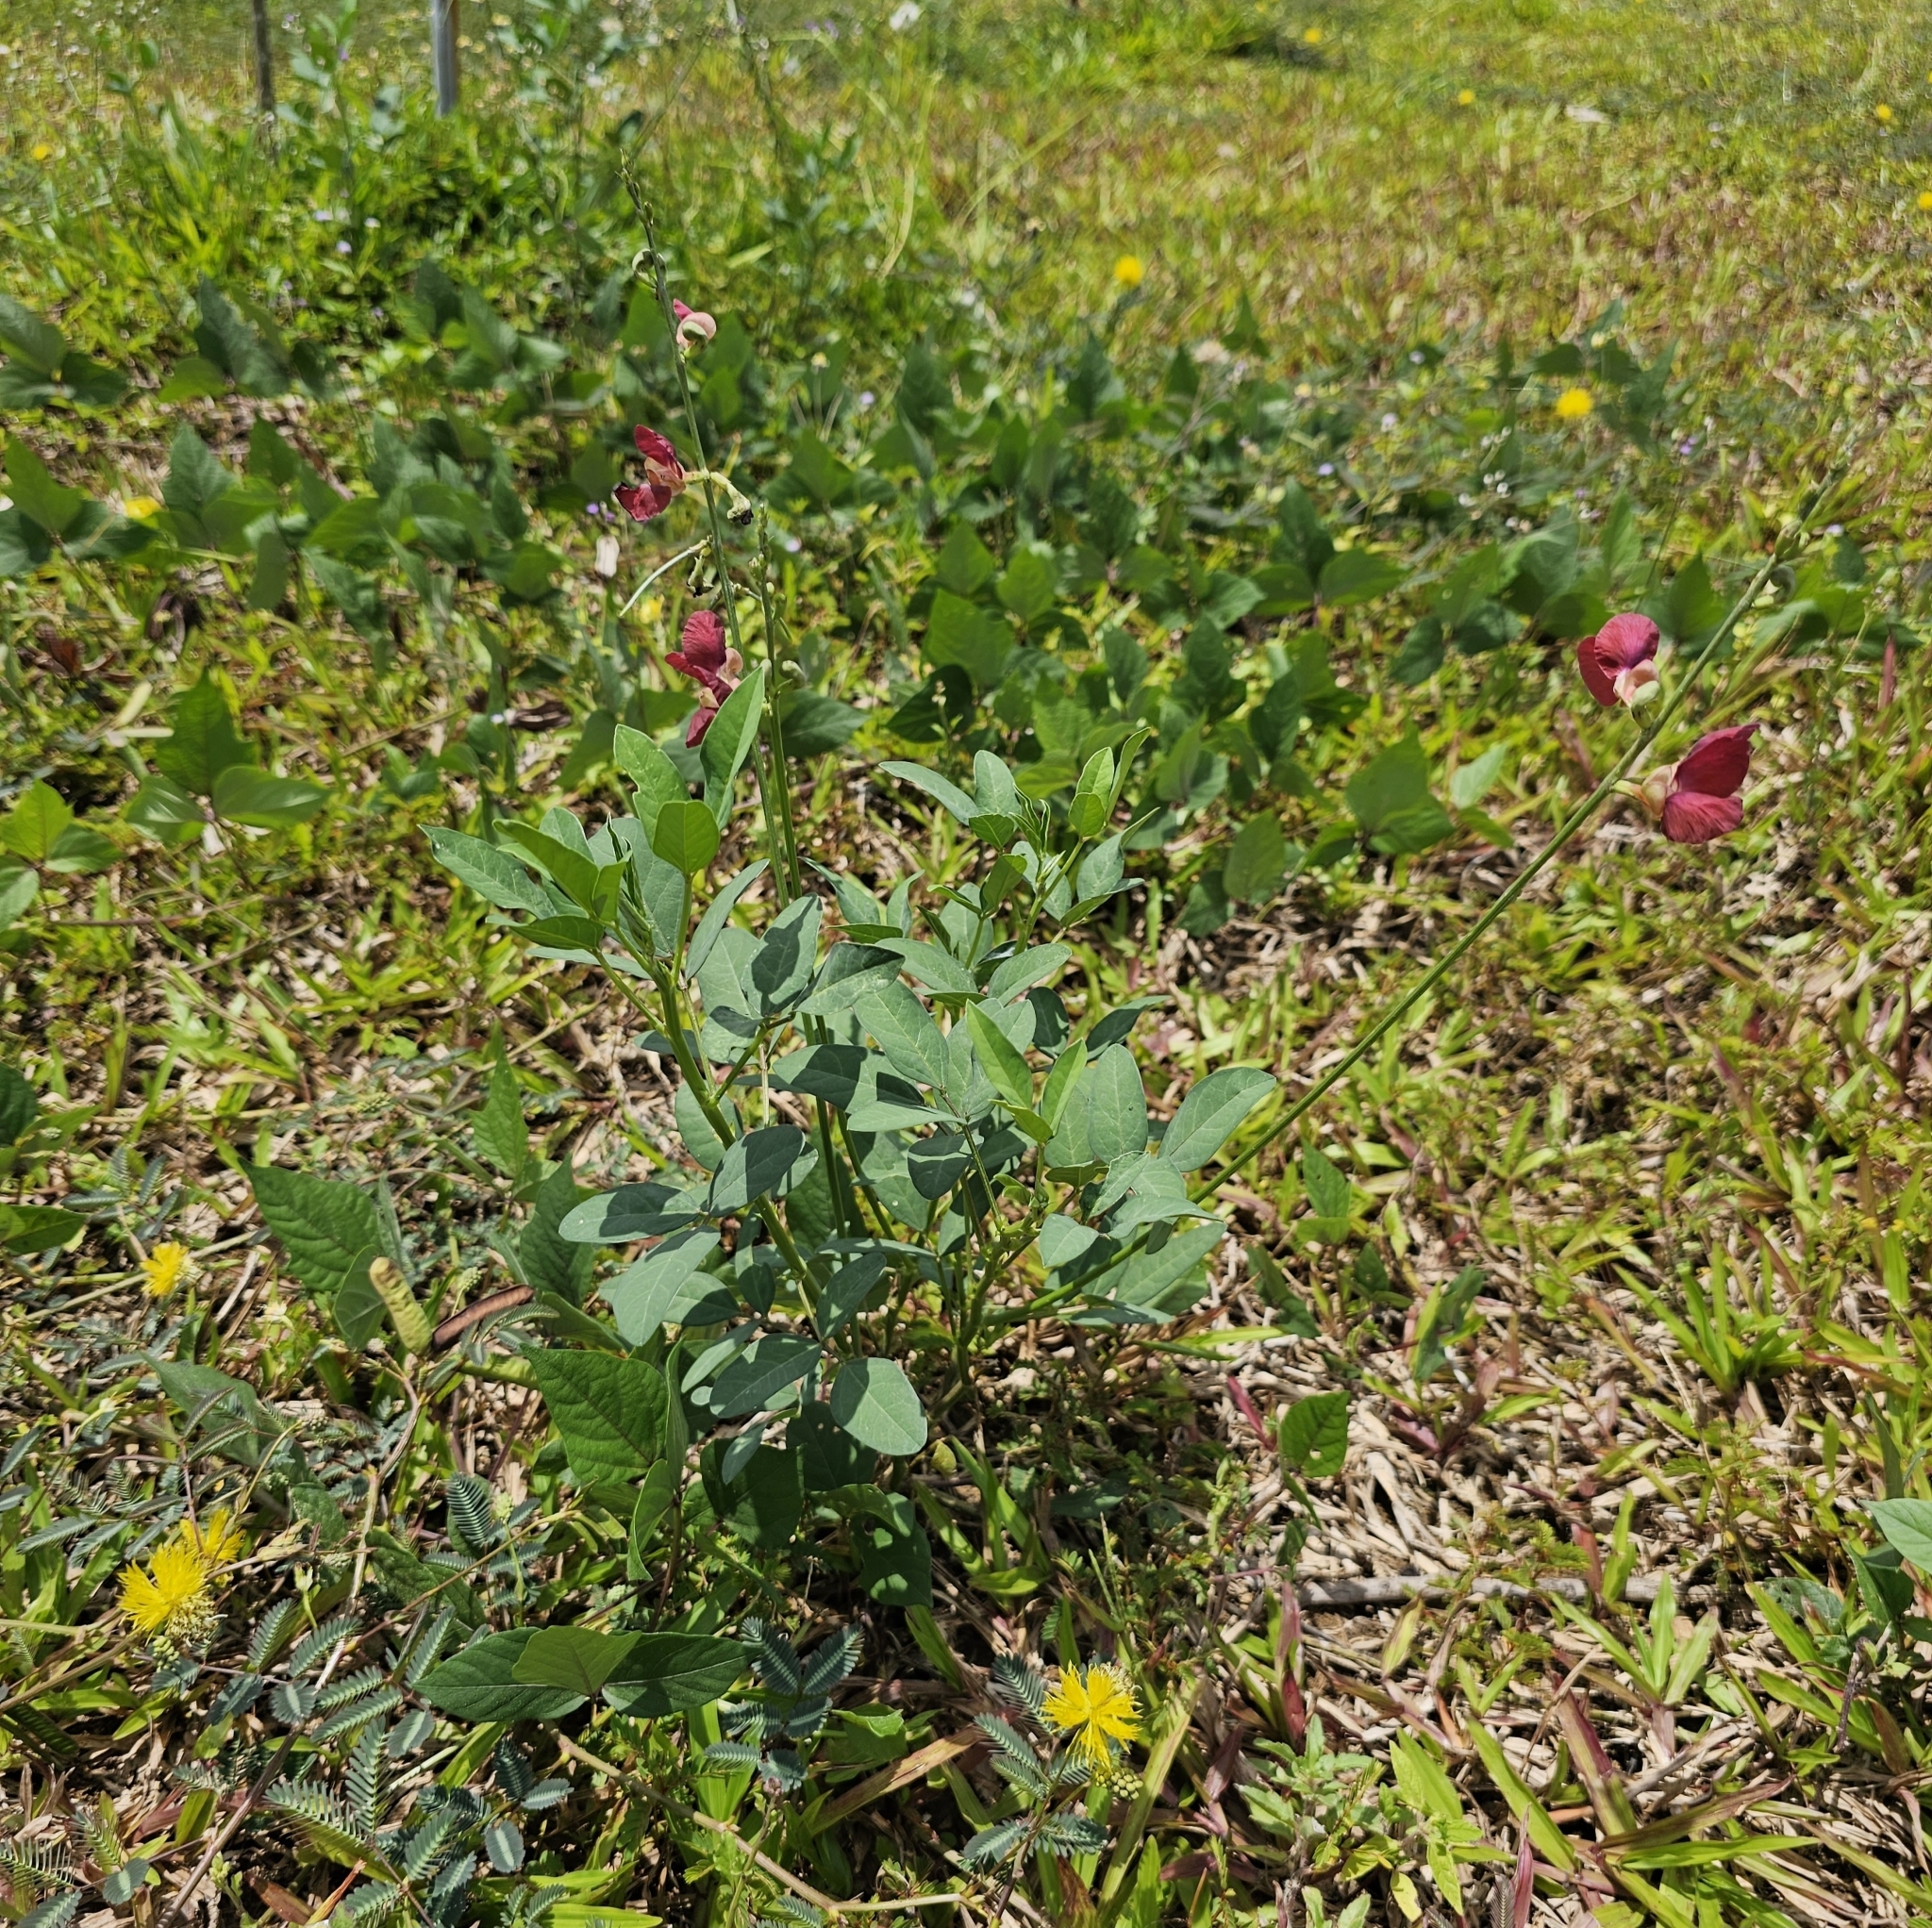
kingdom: Plantae
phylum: Tracheophyta
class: Magnoliopsida
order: Fabales
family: Fabaceae
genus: Macroptilium
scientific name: Macroptilium lathyroides
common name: Wild bushbean
